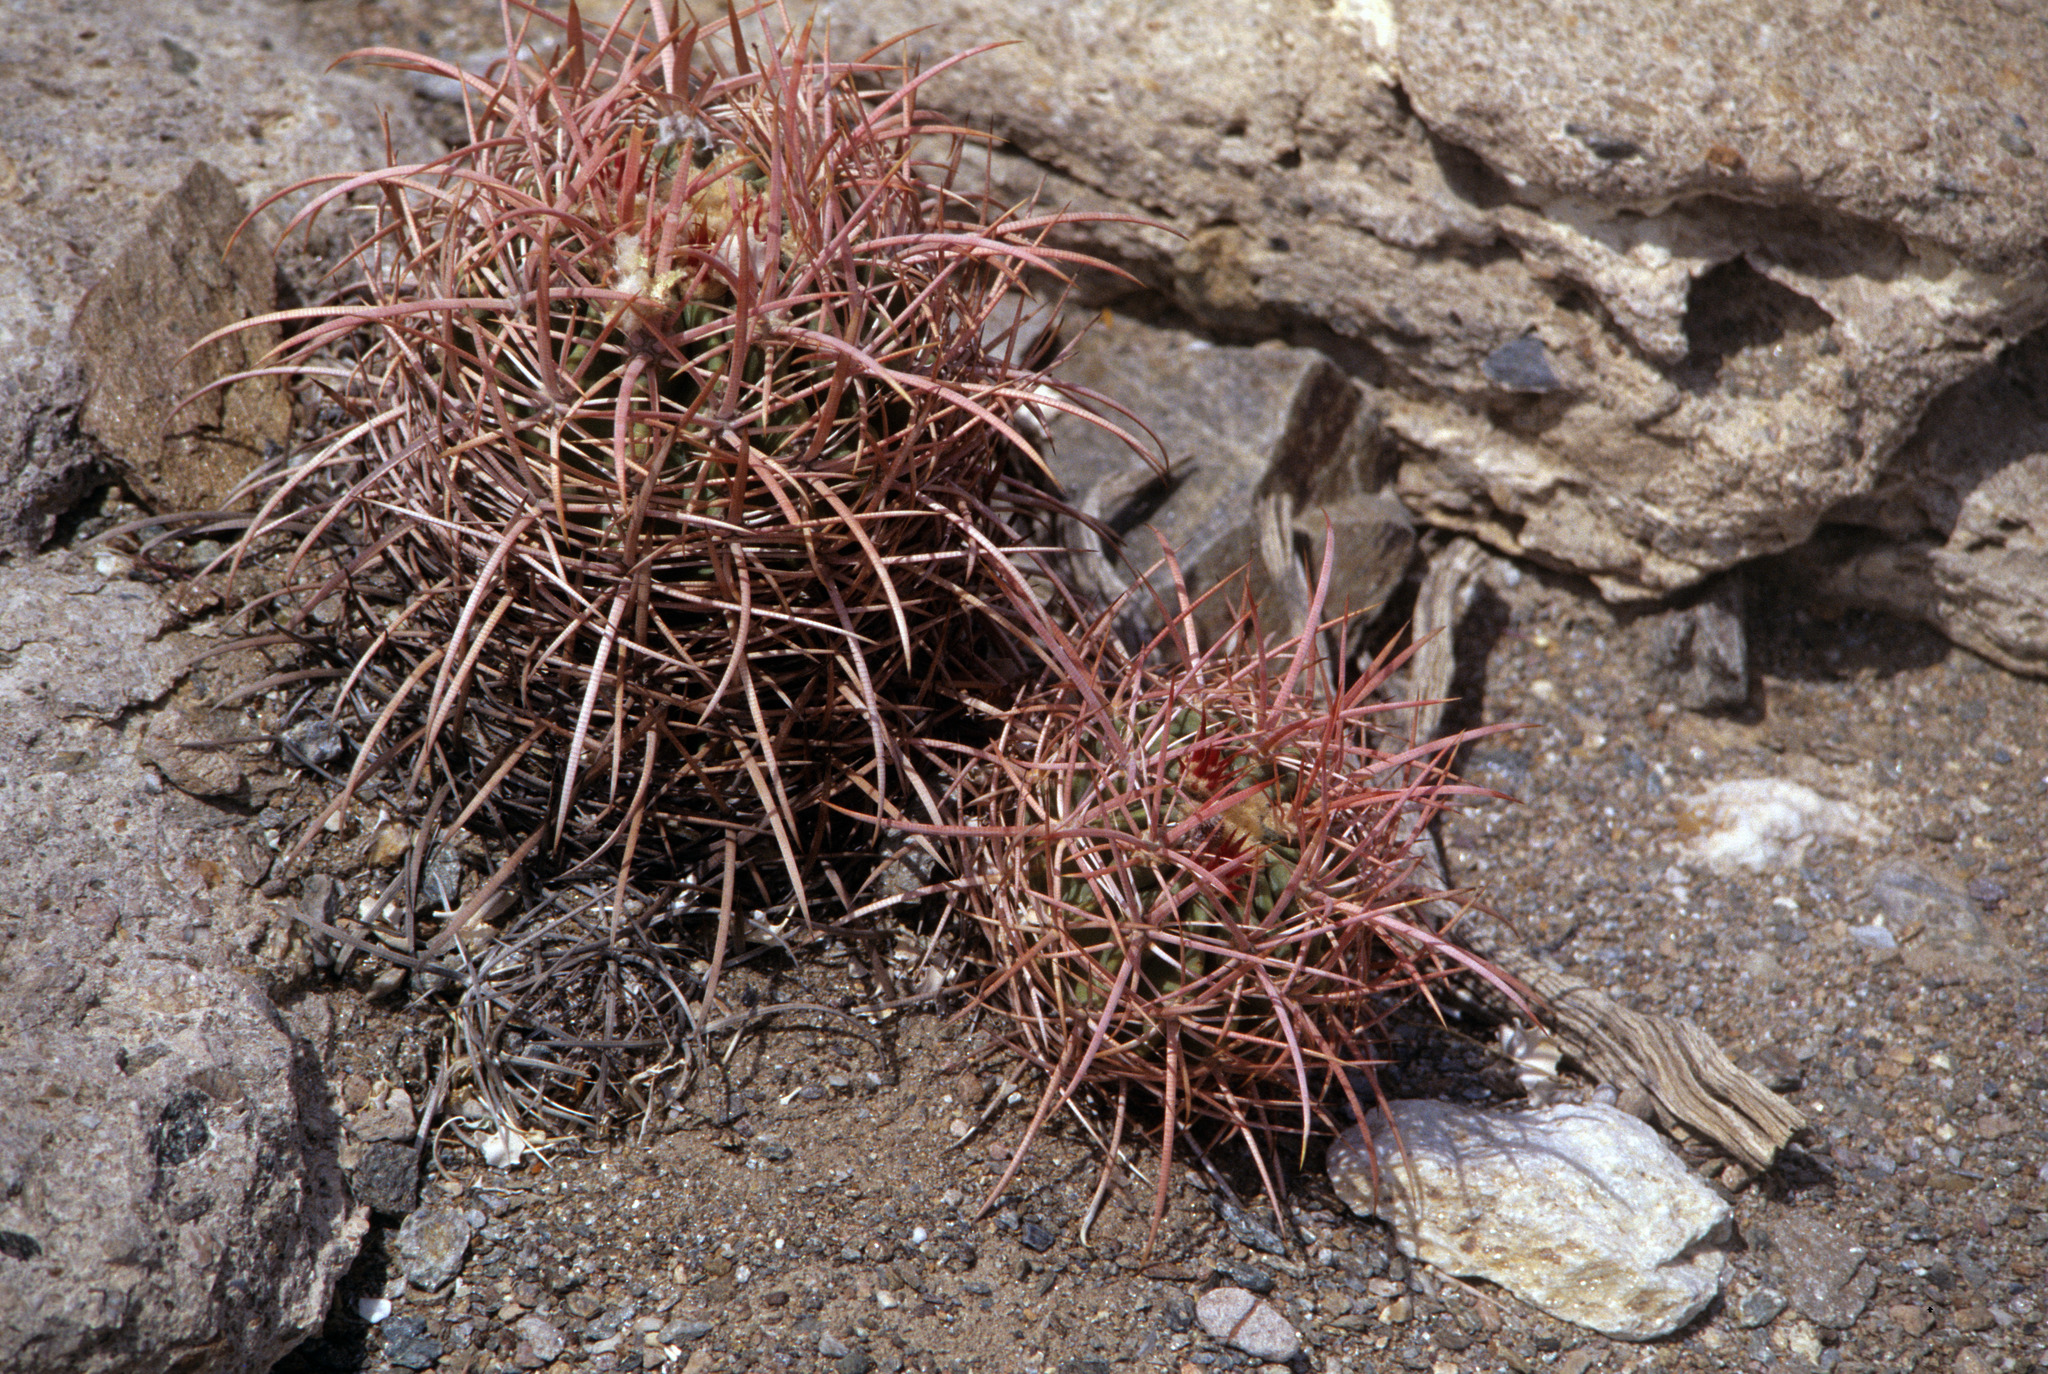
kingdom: Plantae
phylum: Tracheophyta
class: Magnoliopsida
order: Caryophyllales
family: Cactaceae
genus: Echinocactus
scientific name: Echinocactus polycephalus
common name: Cottontop cactus
